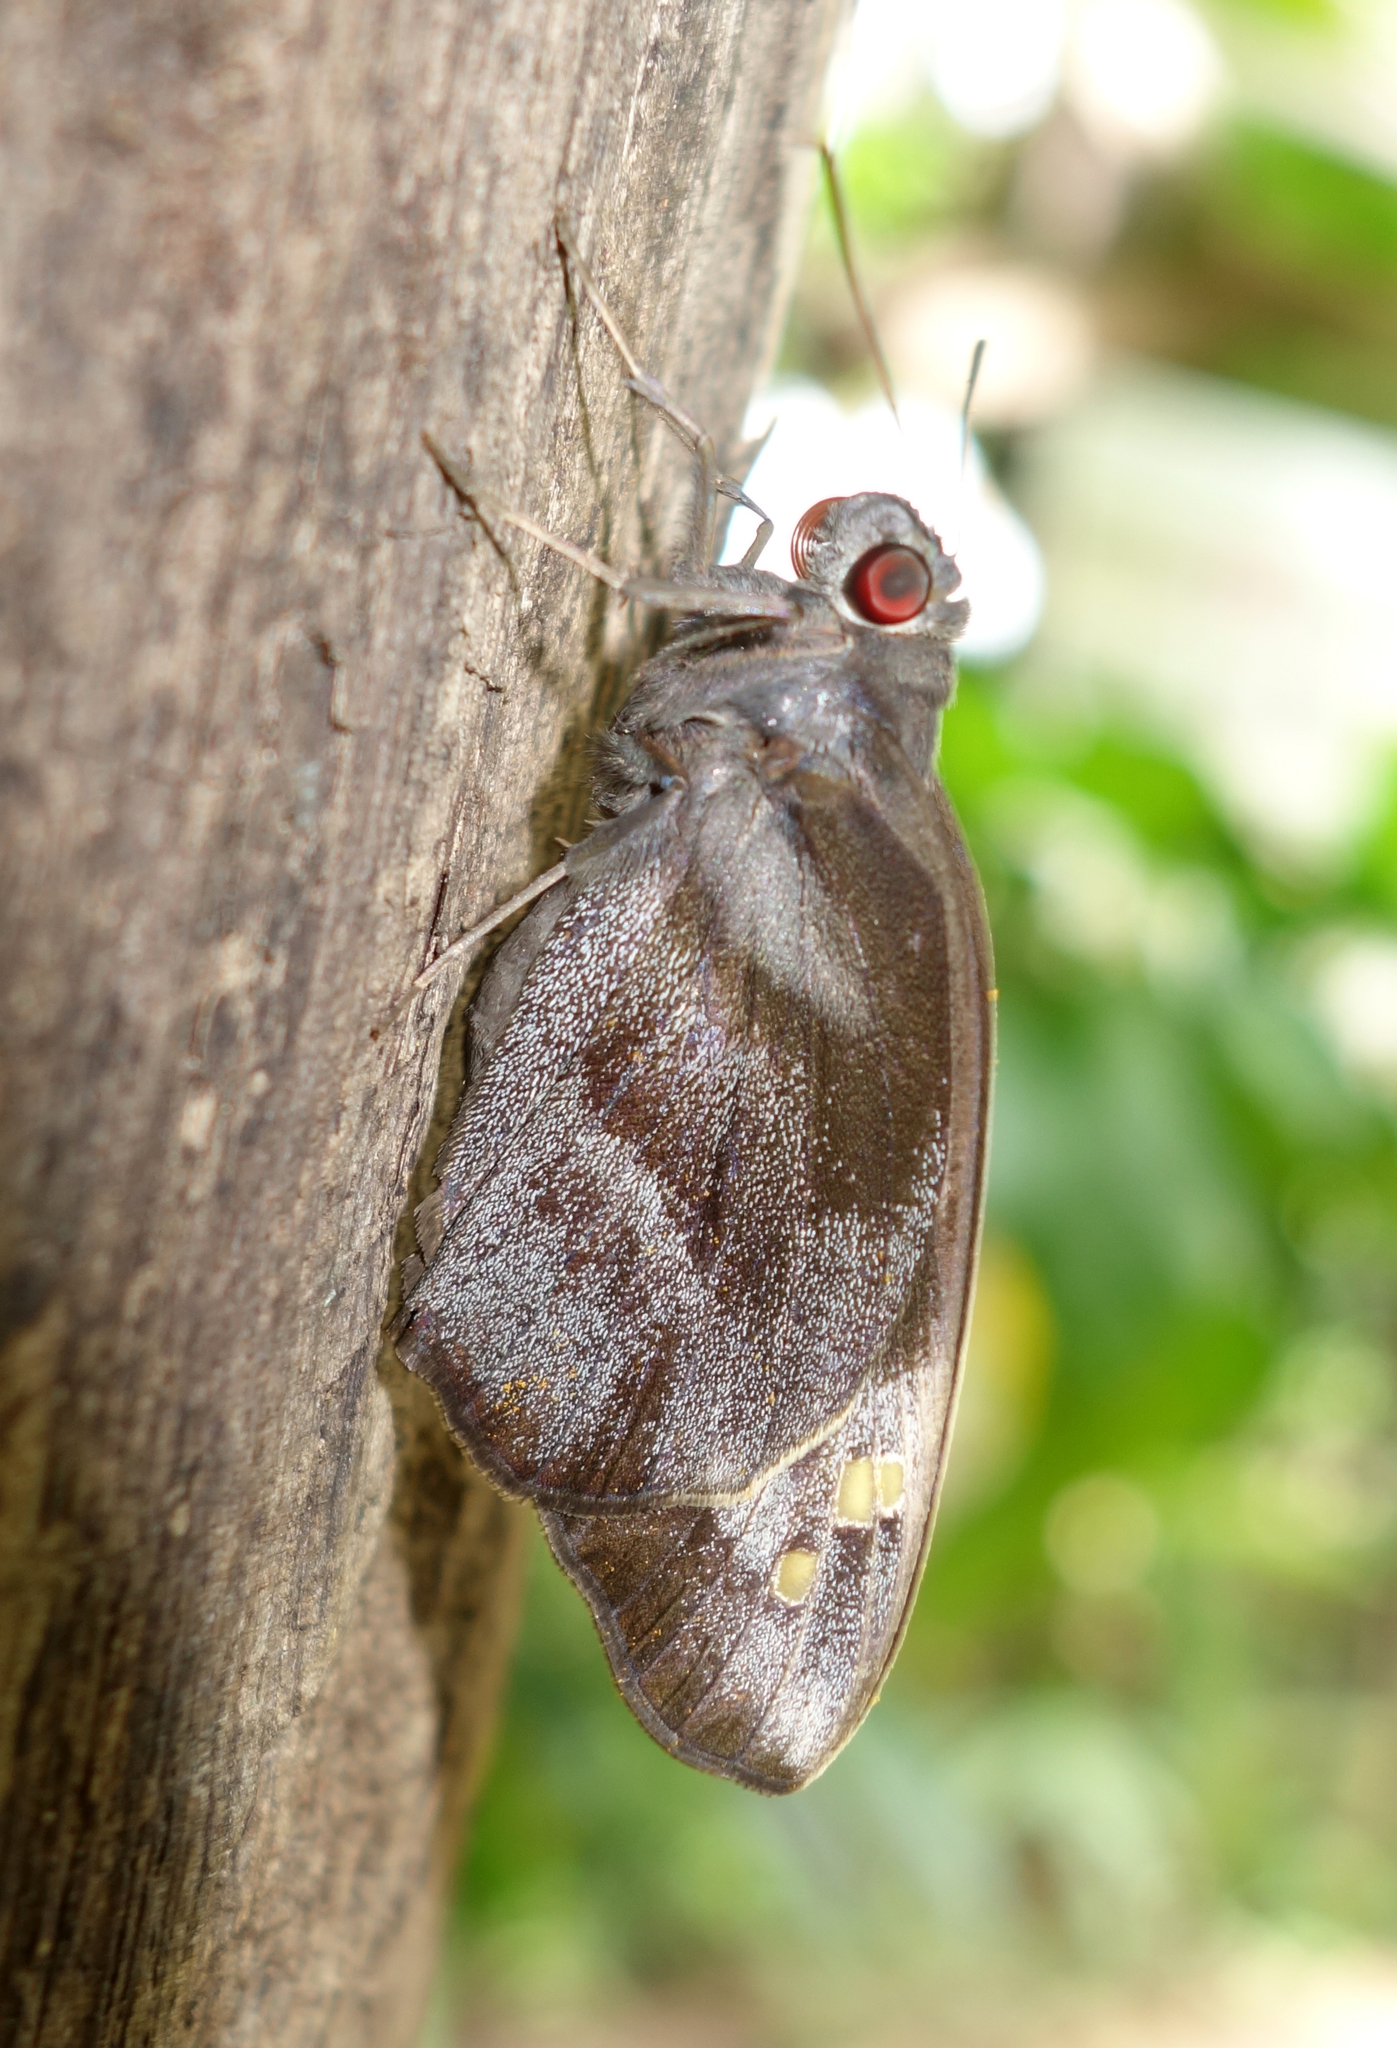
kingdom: Animalia
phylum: Arthropoda
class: Insecta
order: Lepidoptera
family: Hesperiidae
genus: Gangara
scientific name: Gangara thyrsis
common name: Giant redeye
